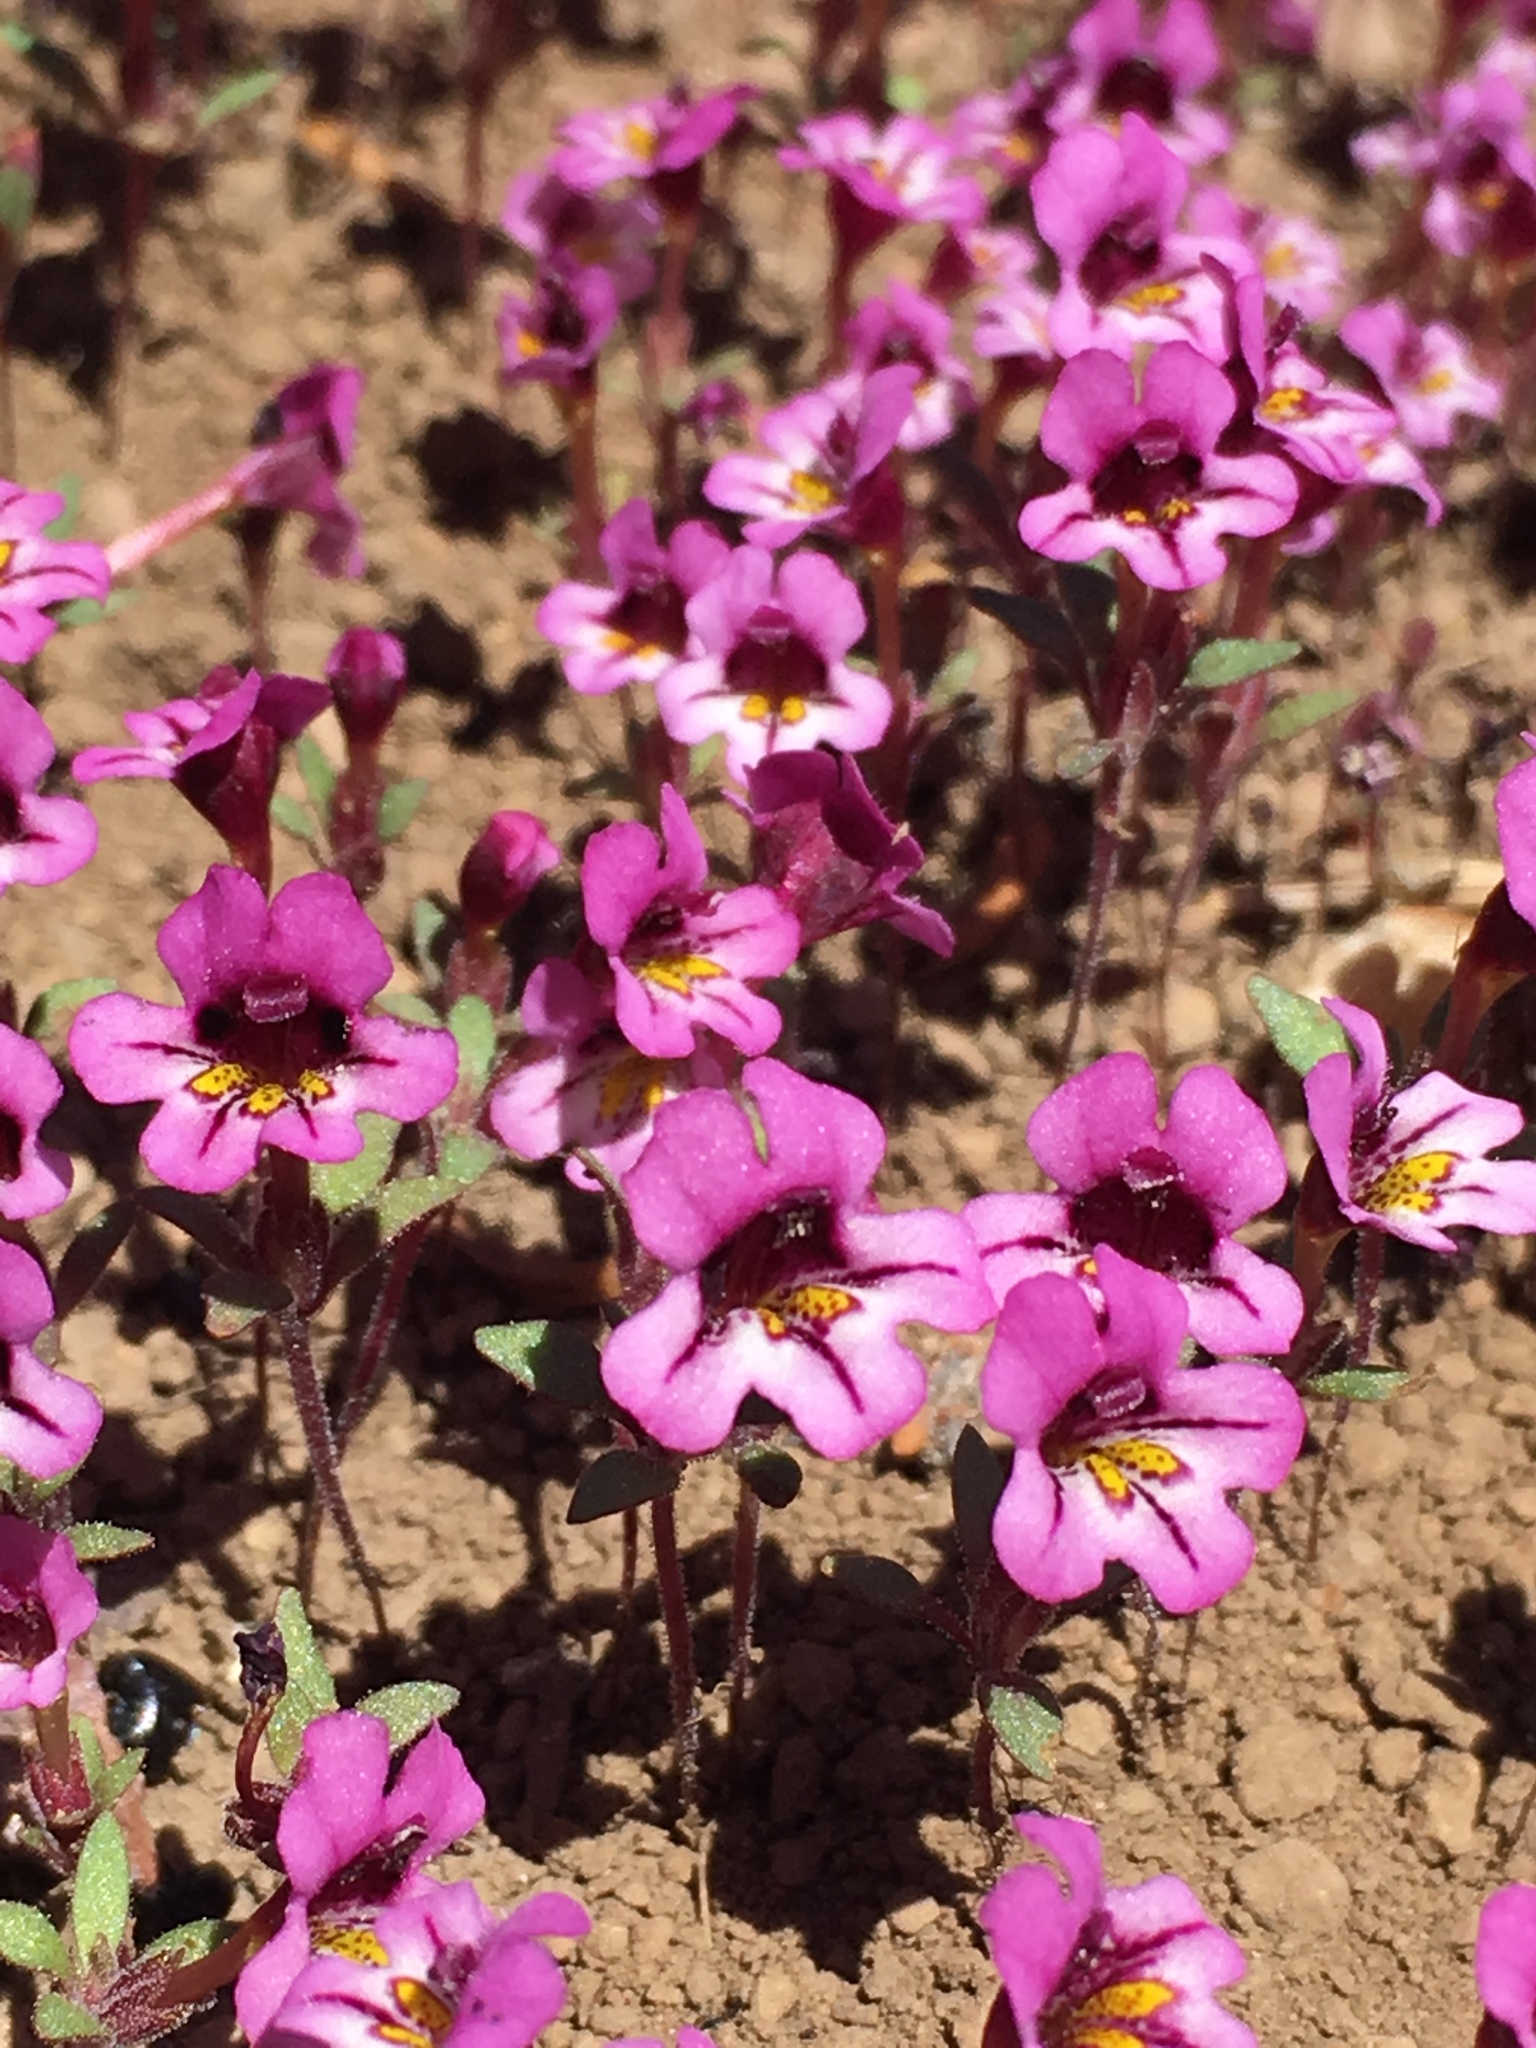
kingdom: Plantae
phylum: Tracheophyta
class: Magnoliopsida
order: Lamiales
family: Phrymaceae
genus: Diplacus
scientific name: Diplacus jepsonii
